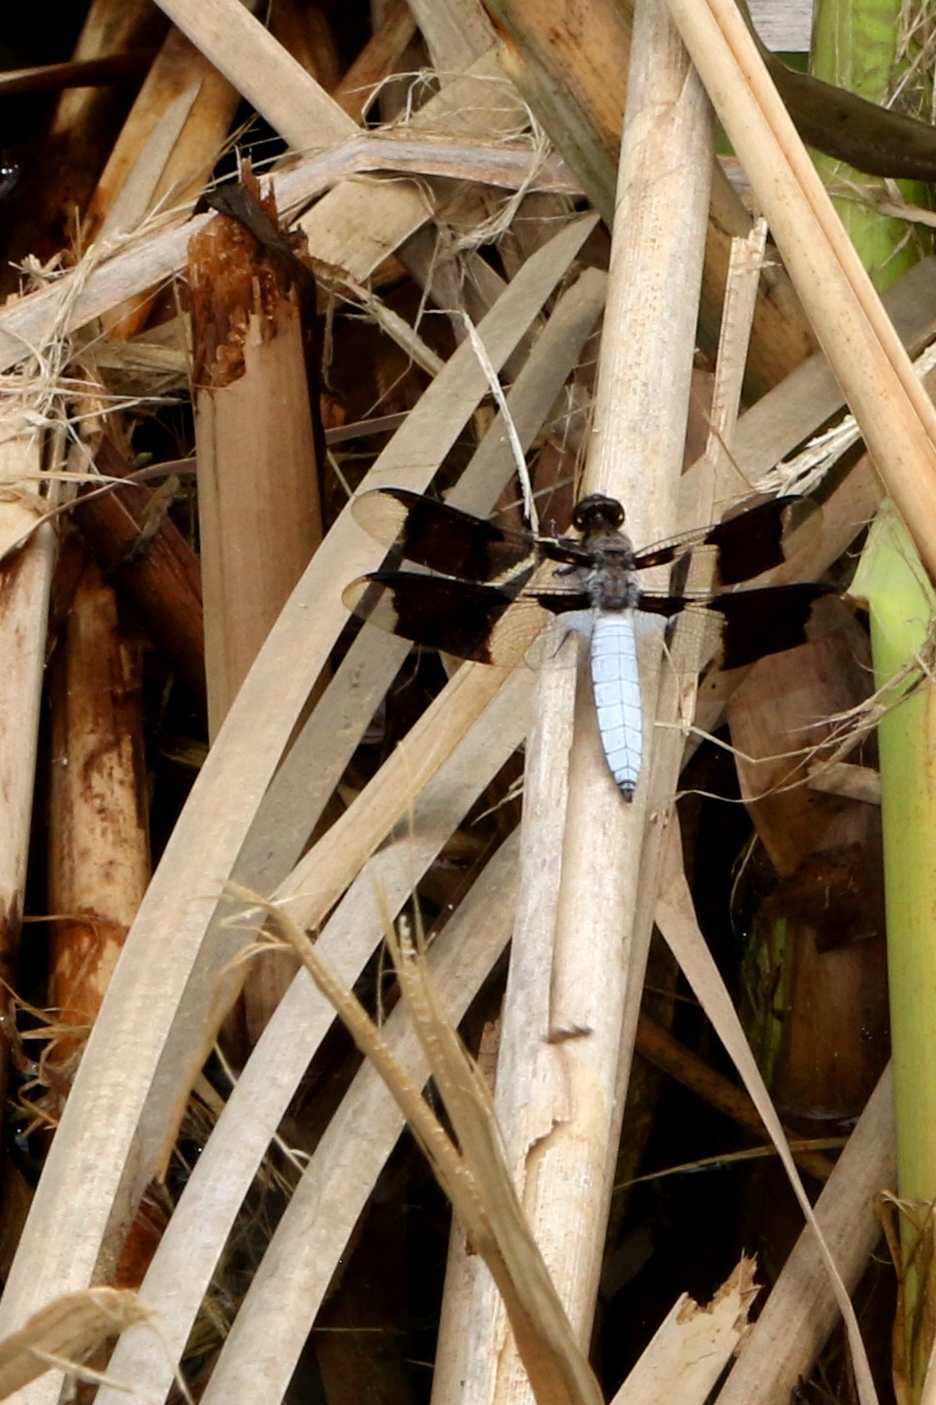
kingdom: Animalia
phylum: Arthropoda
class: Insecta
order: Odonata
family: Libellulidae
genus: Plathemis
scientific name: Plathemis lydia
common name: Common whitetail
